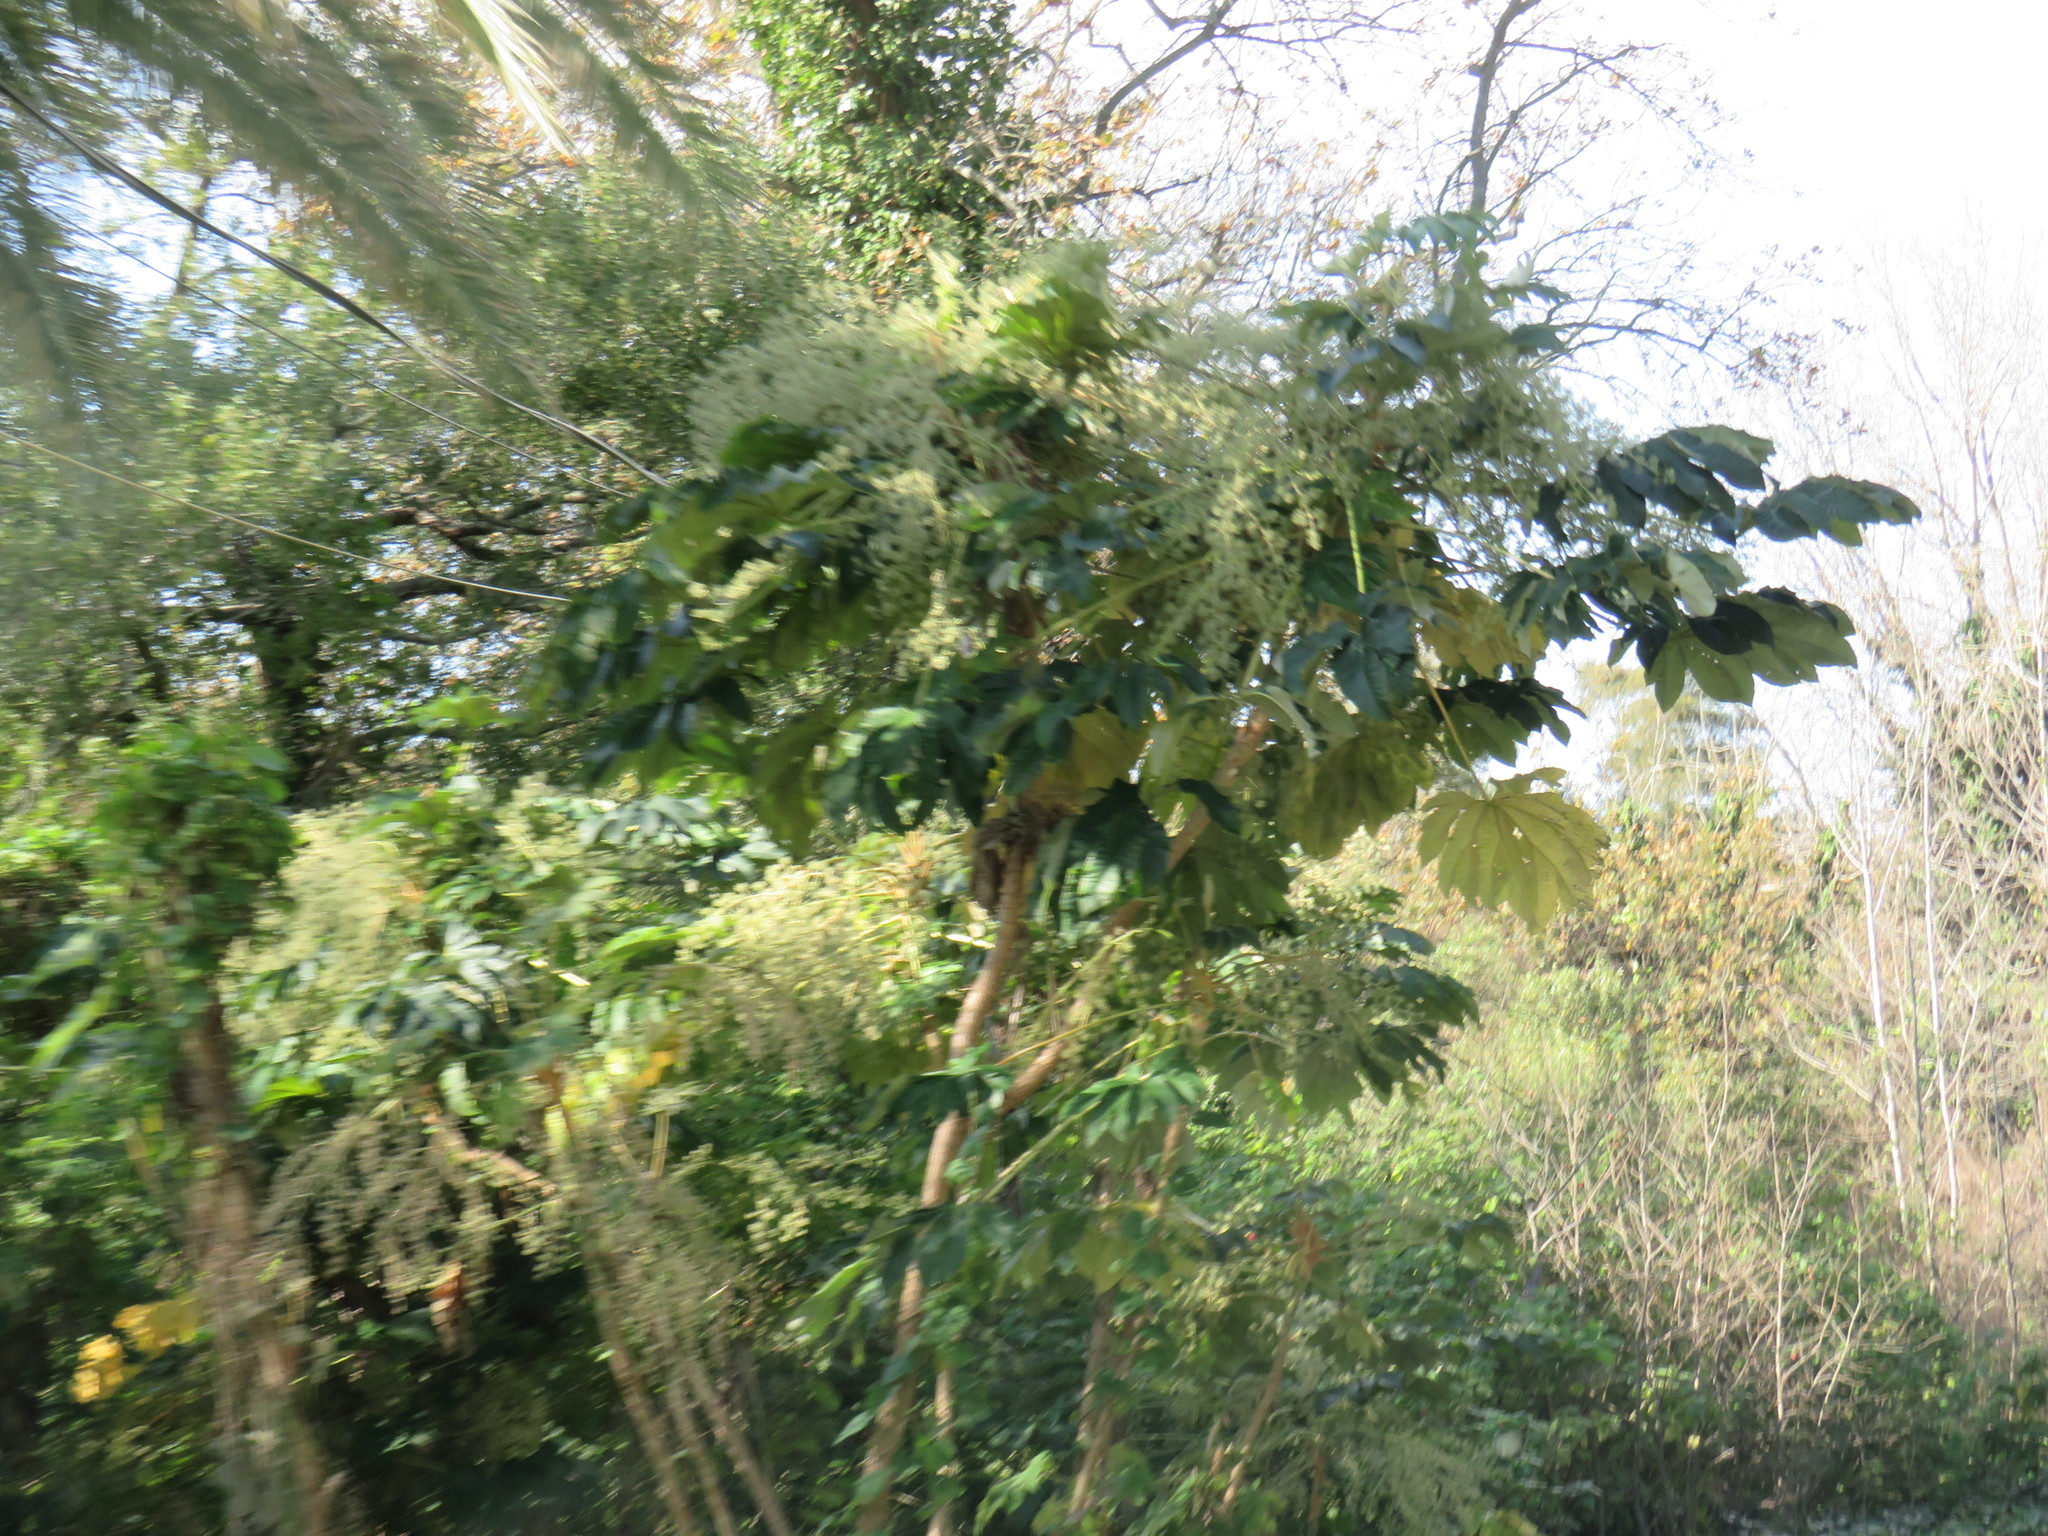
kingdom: Plantae
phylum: Tracheophyta
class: Magnoliopsida
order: Apiales
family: Araliaceae
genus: Tetrapanax
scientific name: Tetrapanax papyrifer
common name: Rice-paper plant
